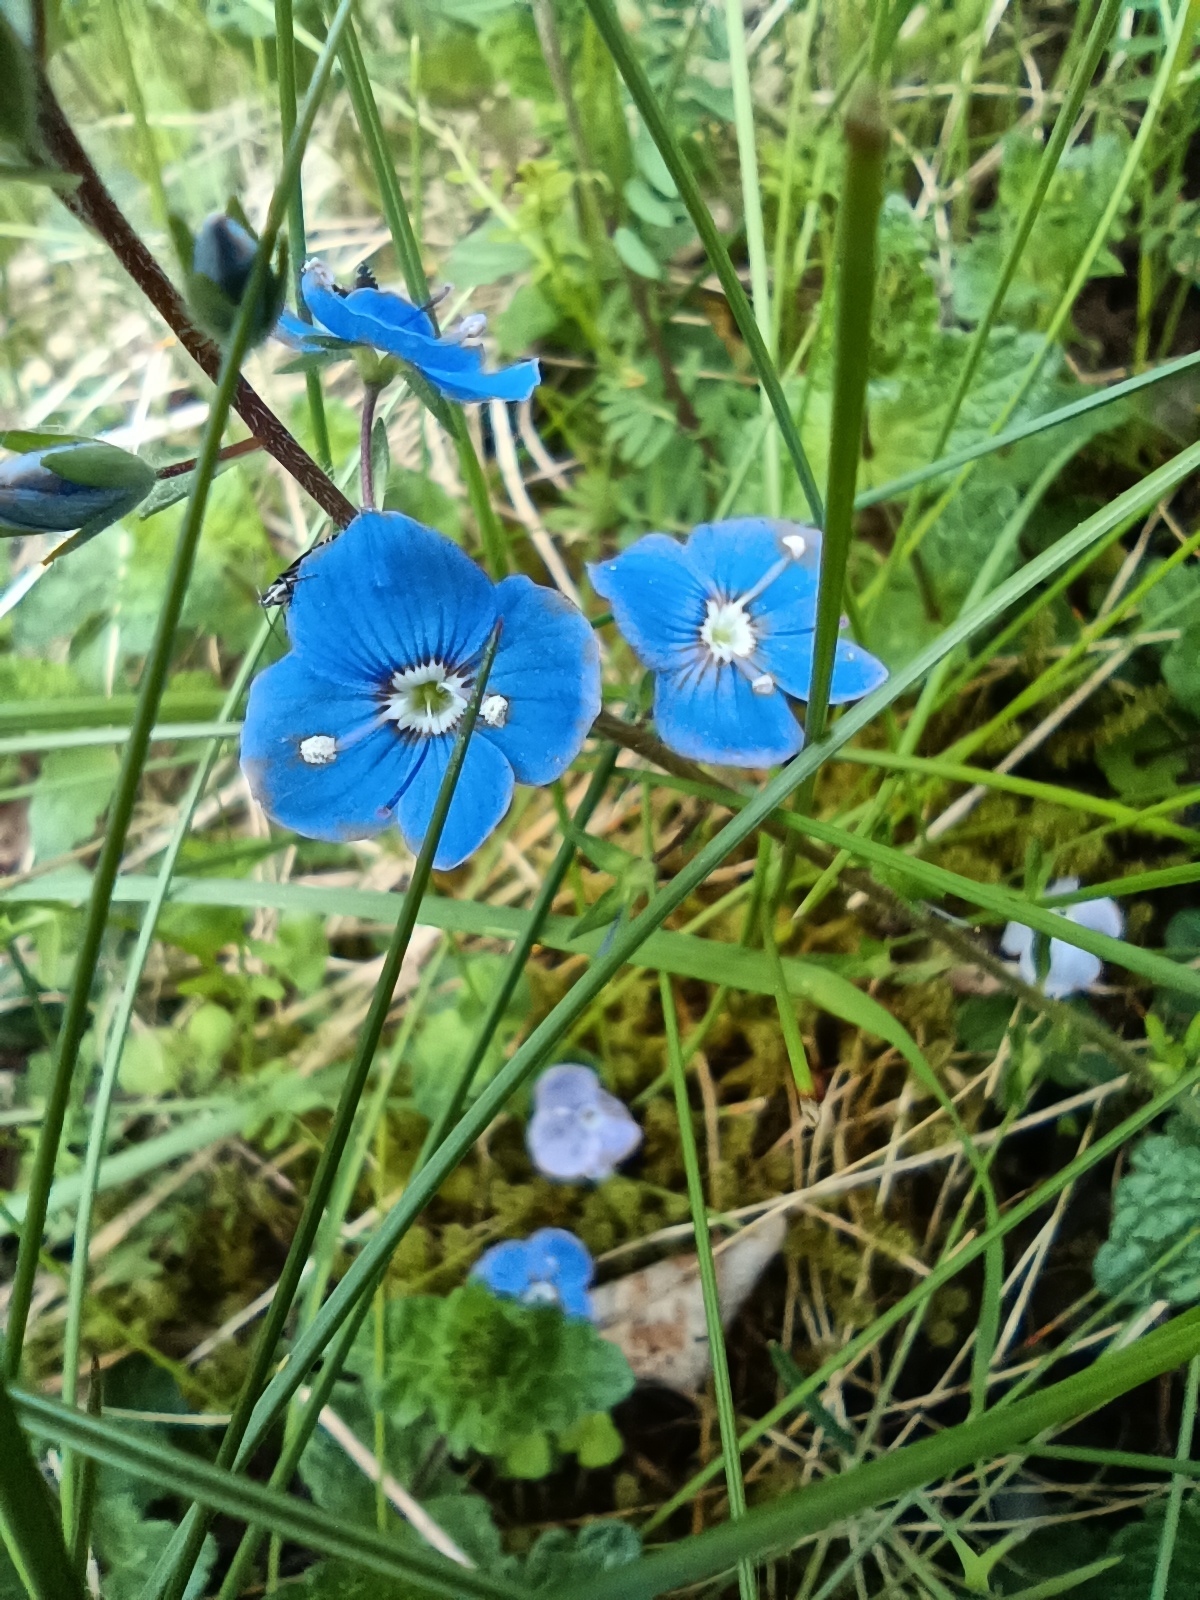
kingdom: Plantae
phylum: Tracheophyta
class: Magnoliopsida
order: Lamiales
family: Plantaginaceae
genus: Veronica
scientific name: Veronica chamaedrys
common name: Germander speedwell
